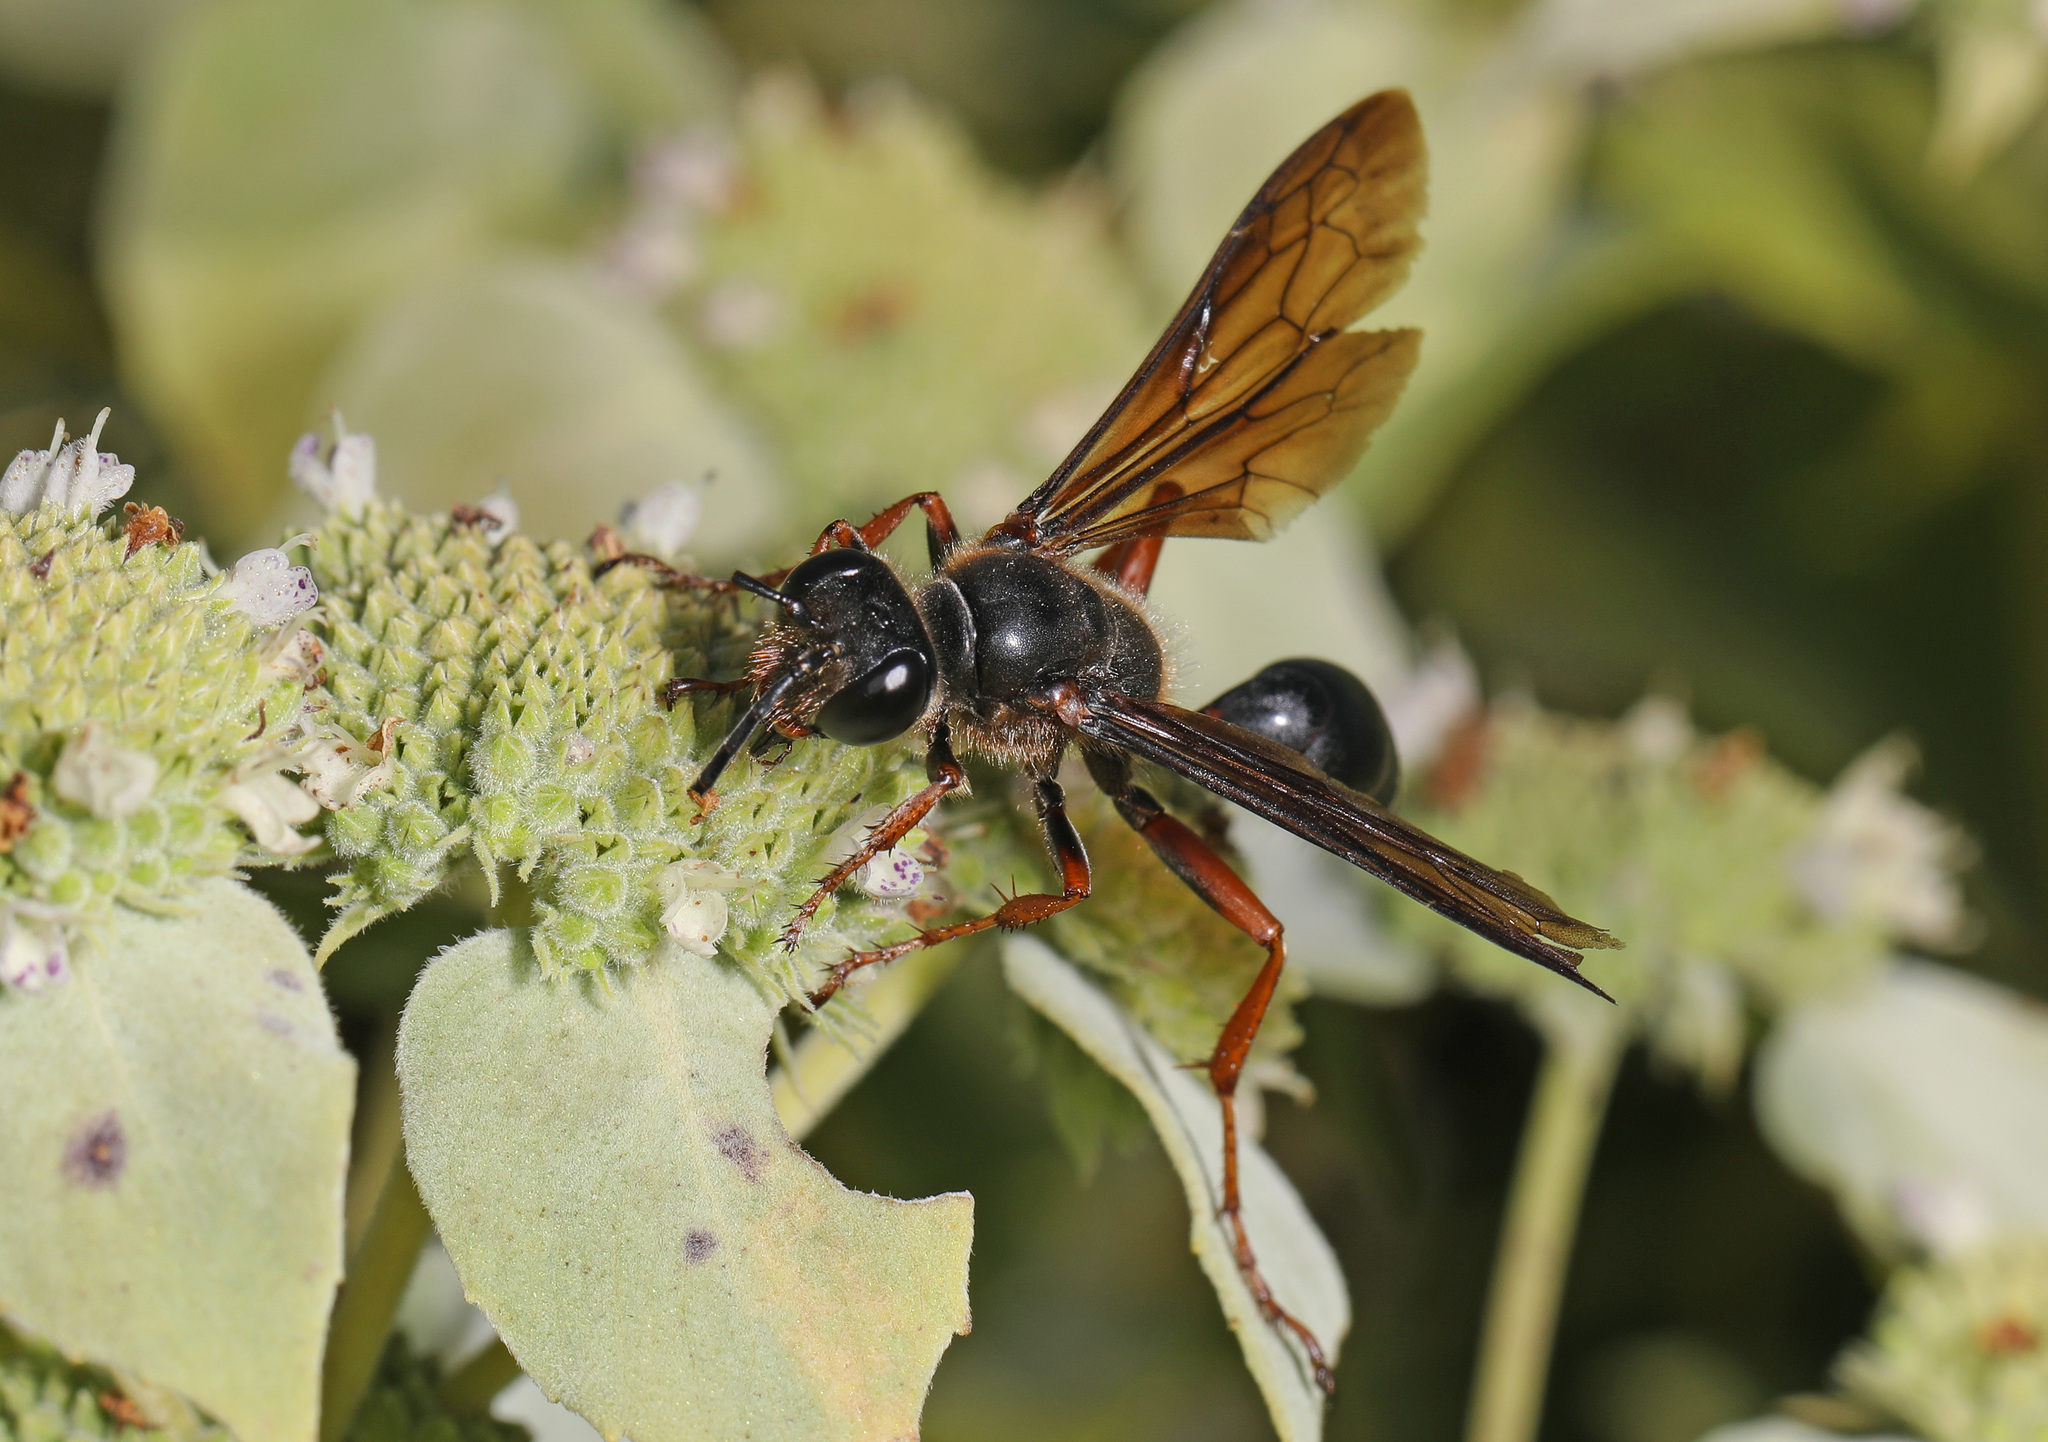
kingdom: Animalia
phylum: Arthropoda
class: Insecta
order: Hymenoptera
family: Sphecidae
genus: Isodontia
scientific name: Isodontia auripes
